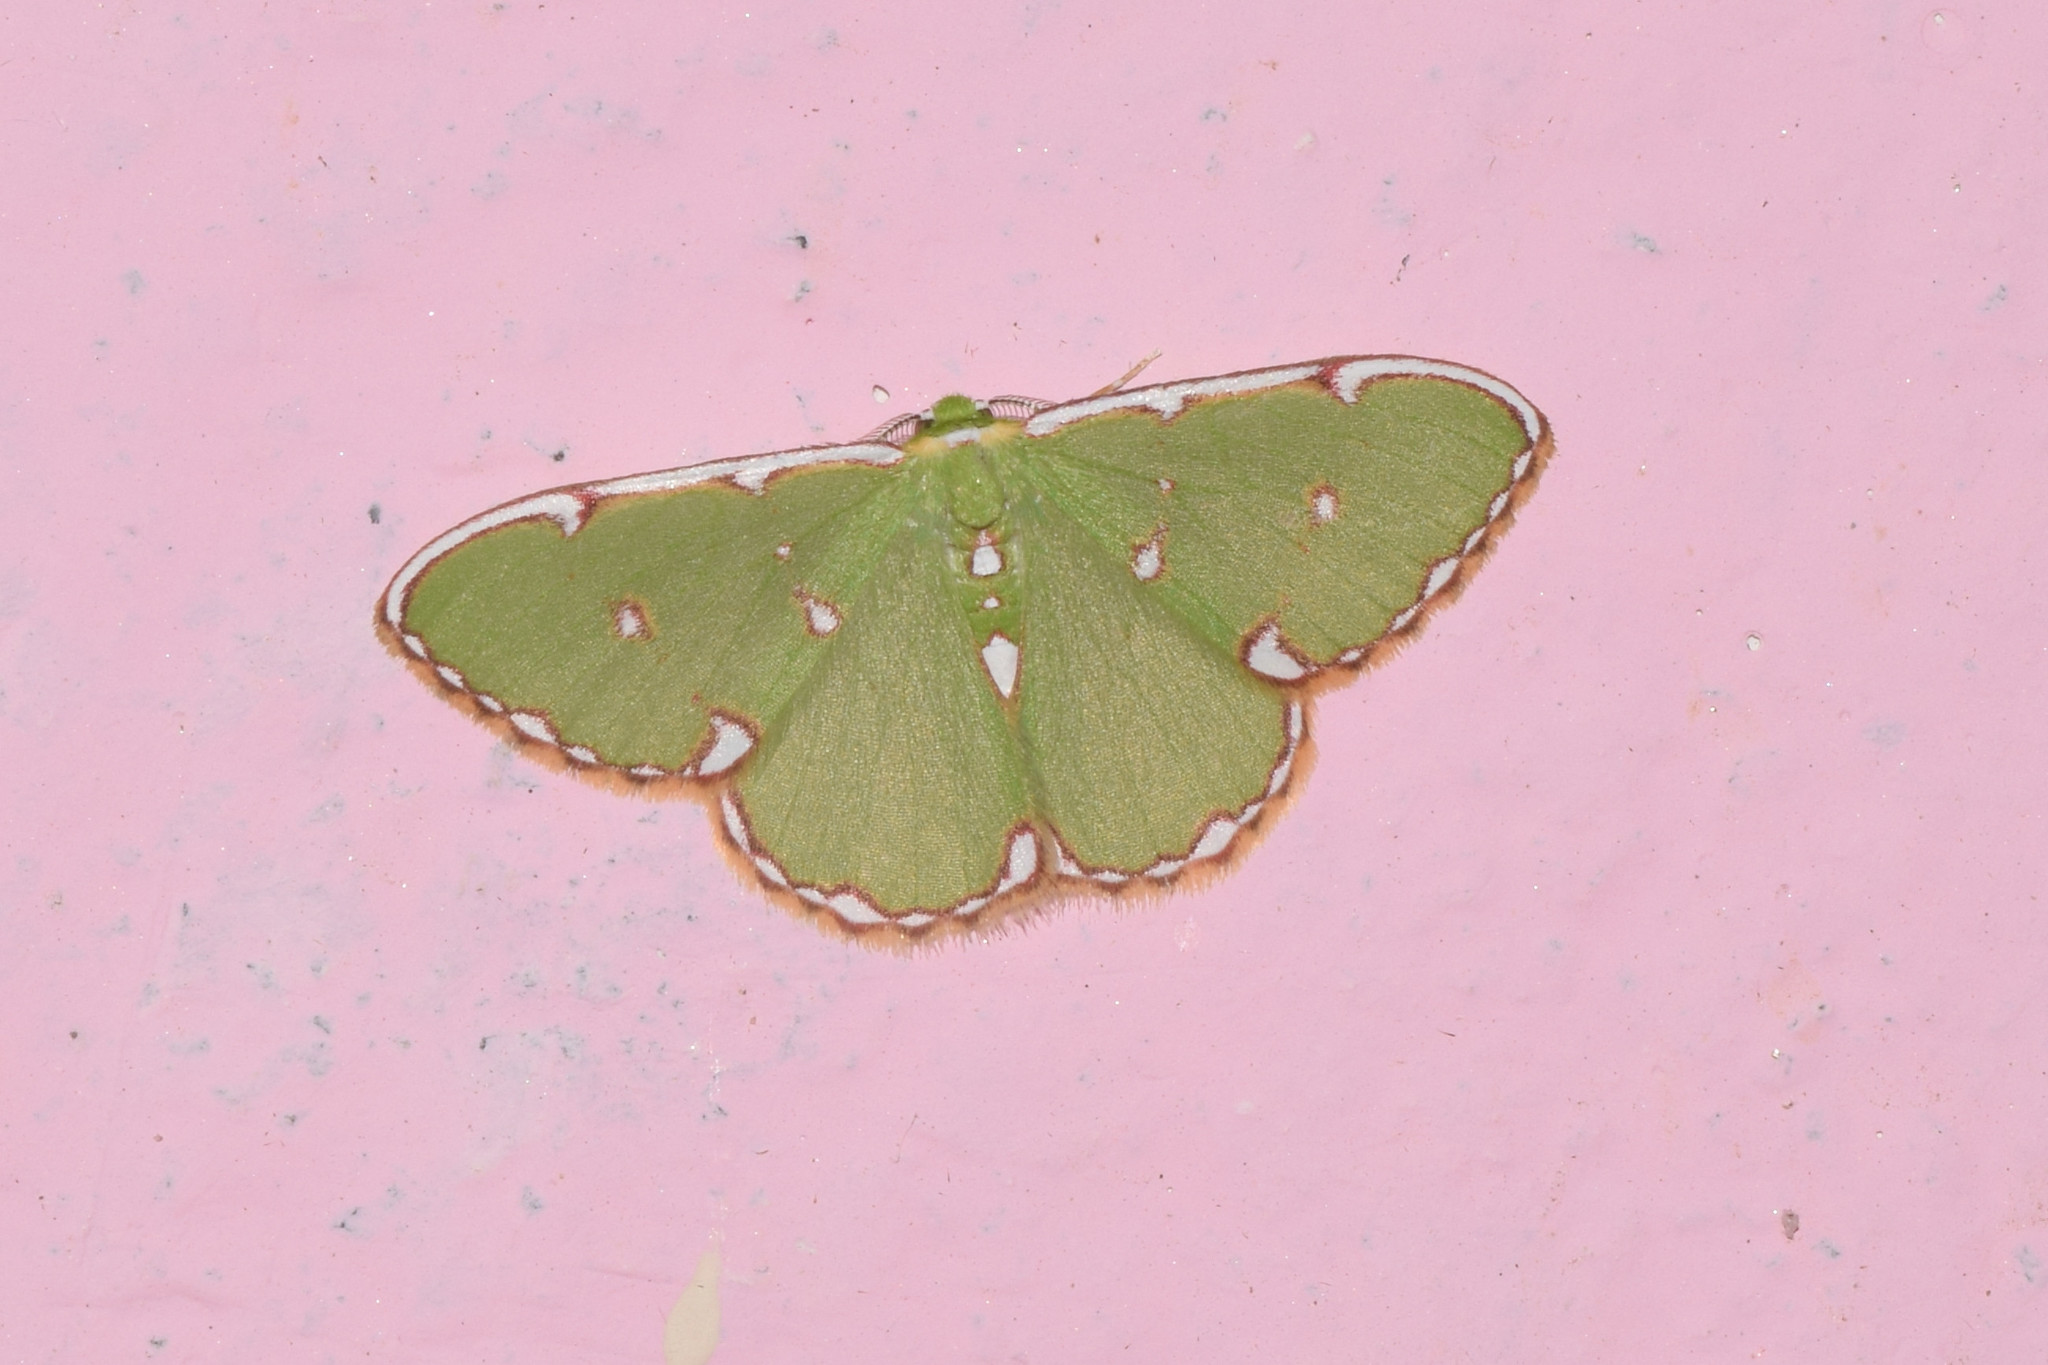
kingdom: Animalia
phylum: Arthropoda
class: Insecta
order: Lepidoptera
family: Geometridae
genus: Comostolodes
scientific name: Comostolodes
